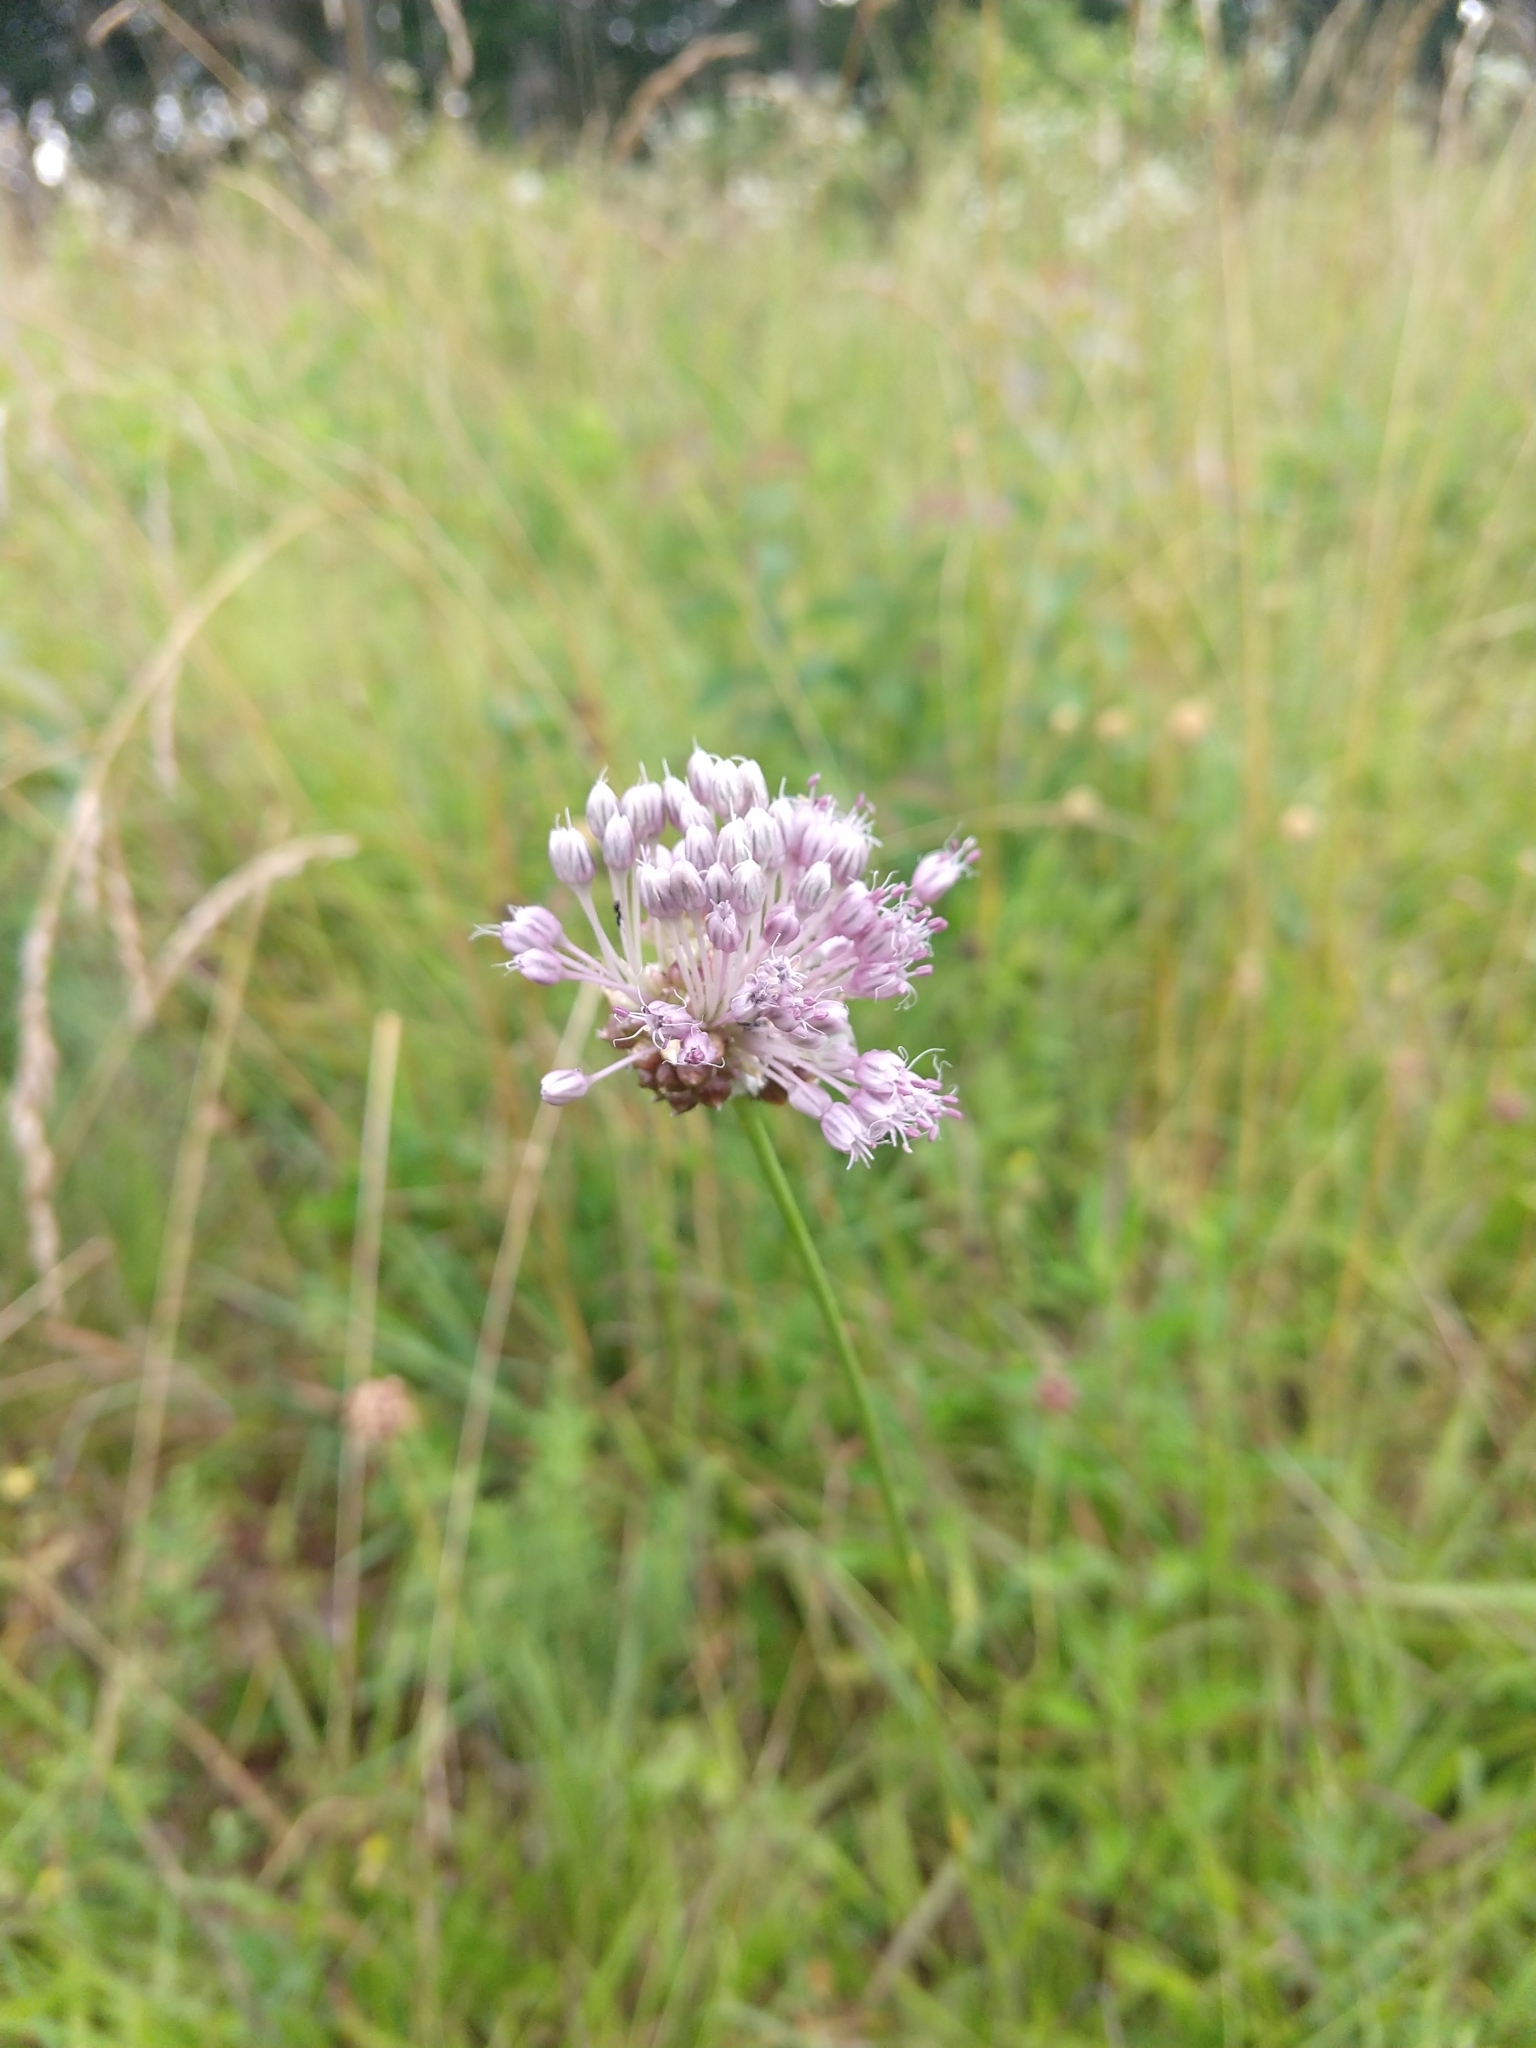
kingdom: Plantae
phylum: Tracheophyta
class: Liliopsida
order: Asparagales
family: Amaryllidaceae
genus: Allium
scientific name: Allium vineale
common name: Crow garlic
